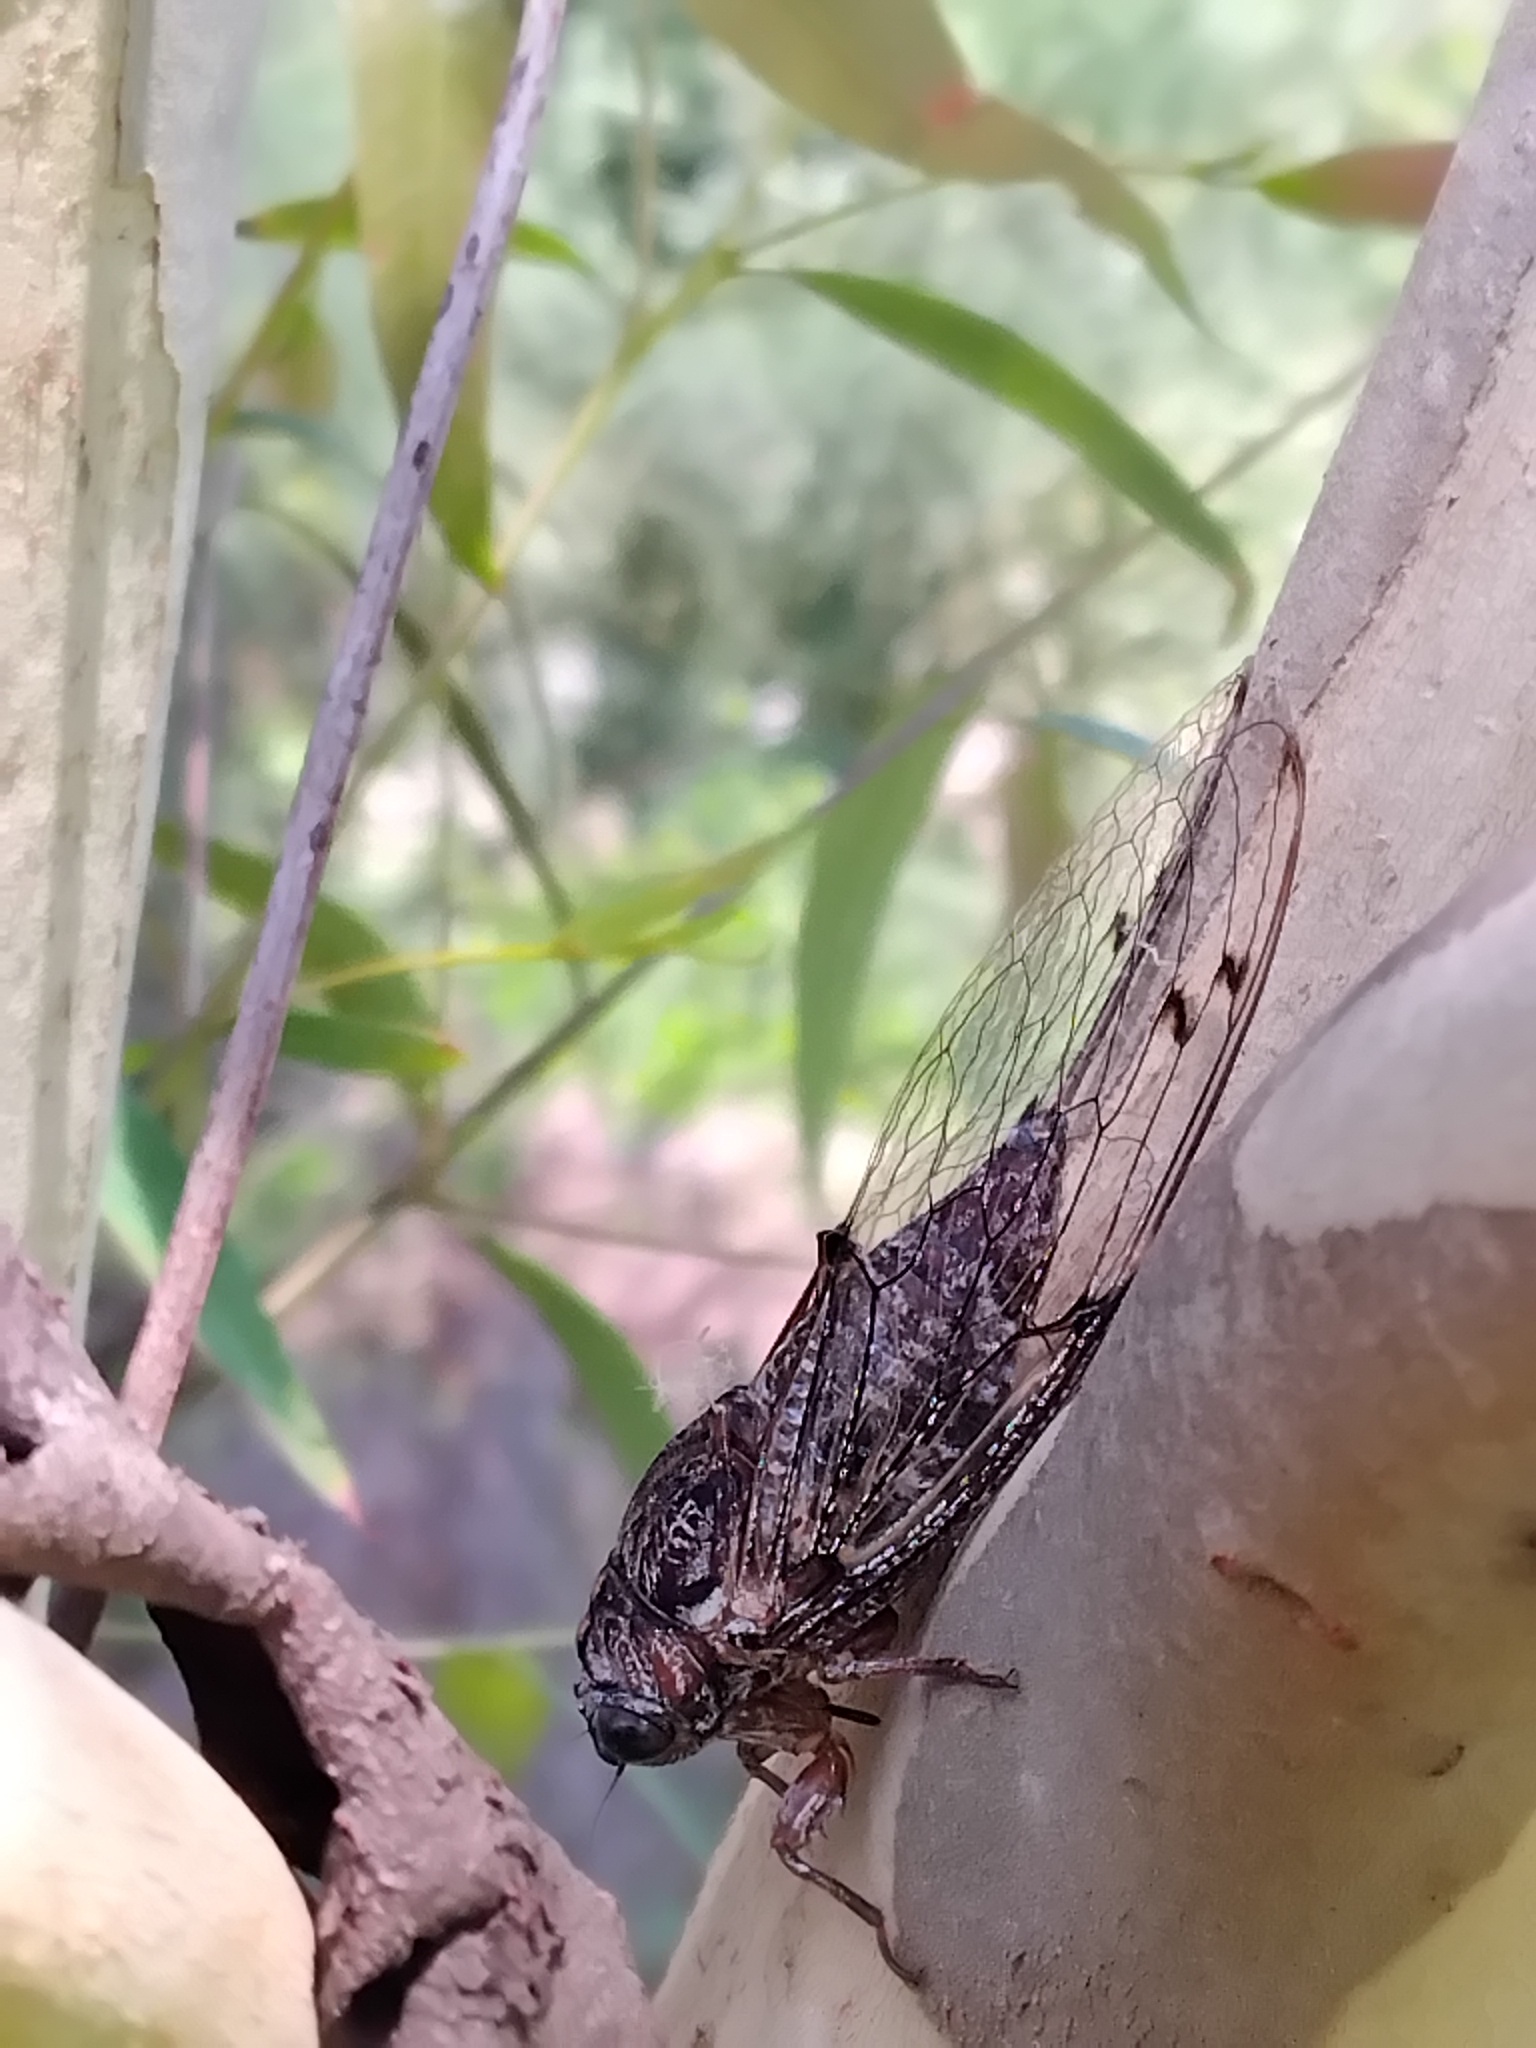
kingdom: Animalia
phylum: Arthropoda
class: Insecta
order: Hemiptera
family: Cicadidae
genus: Aleeta
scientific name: Aleeta curvicosta
